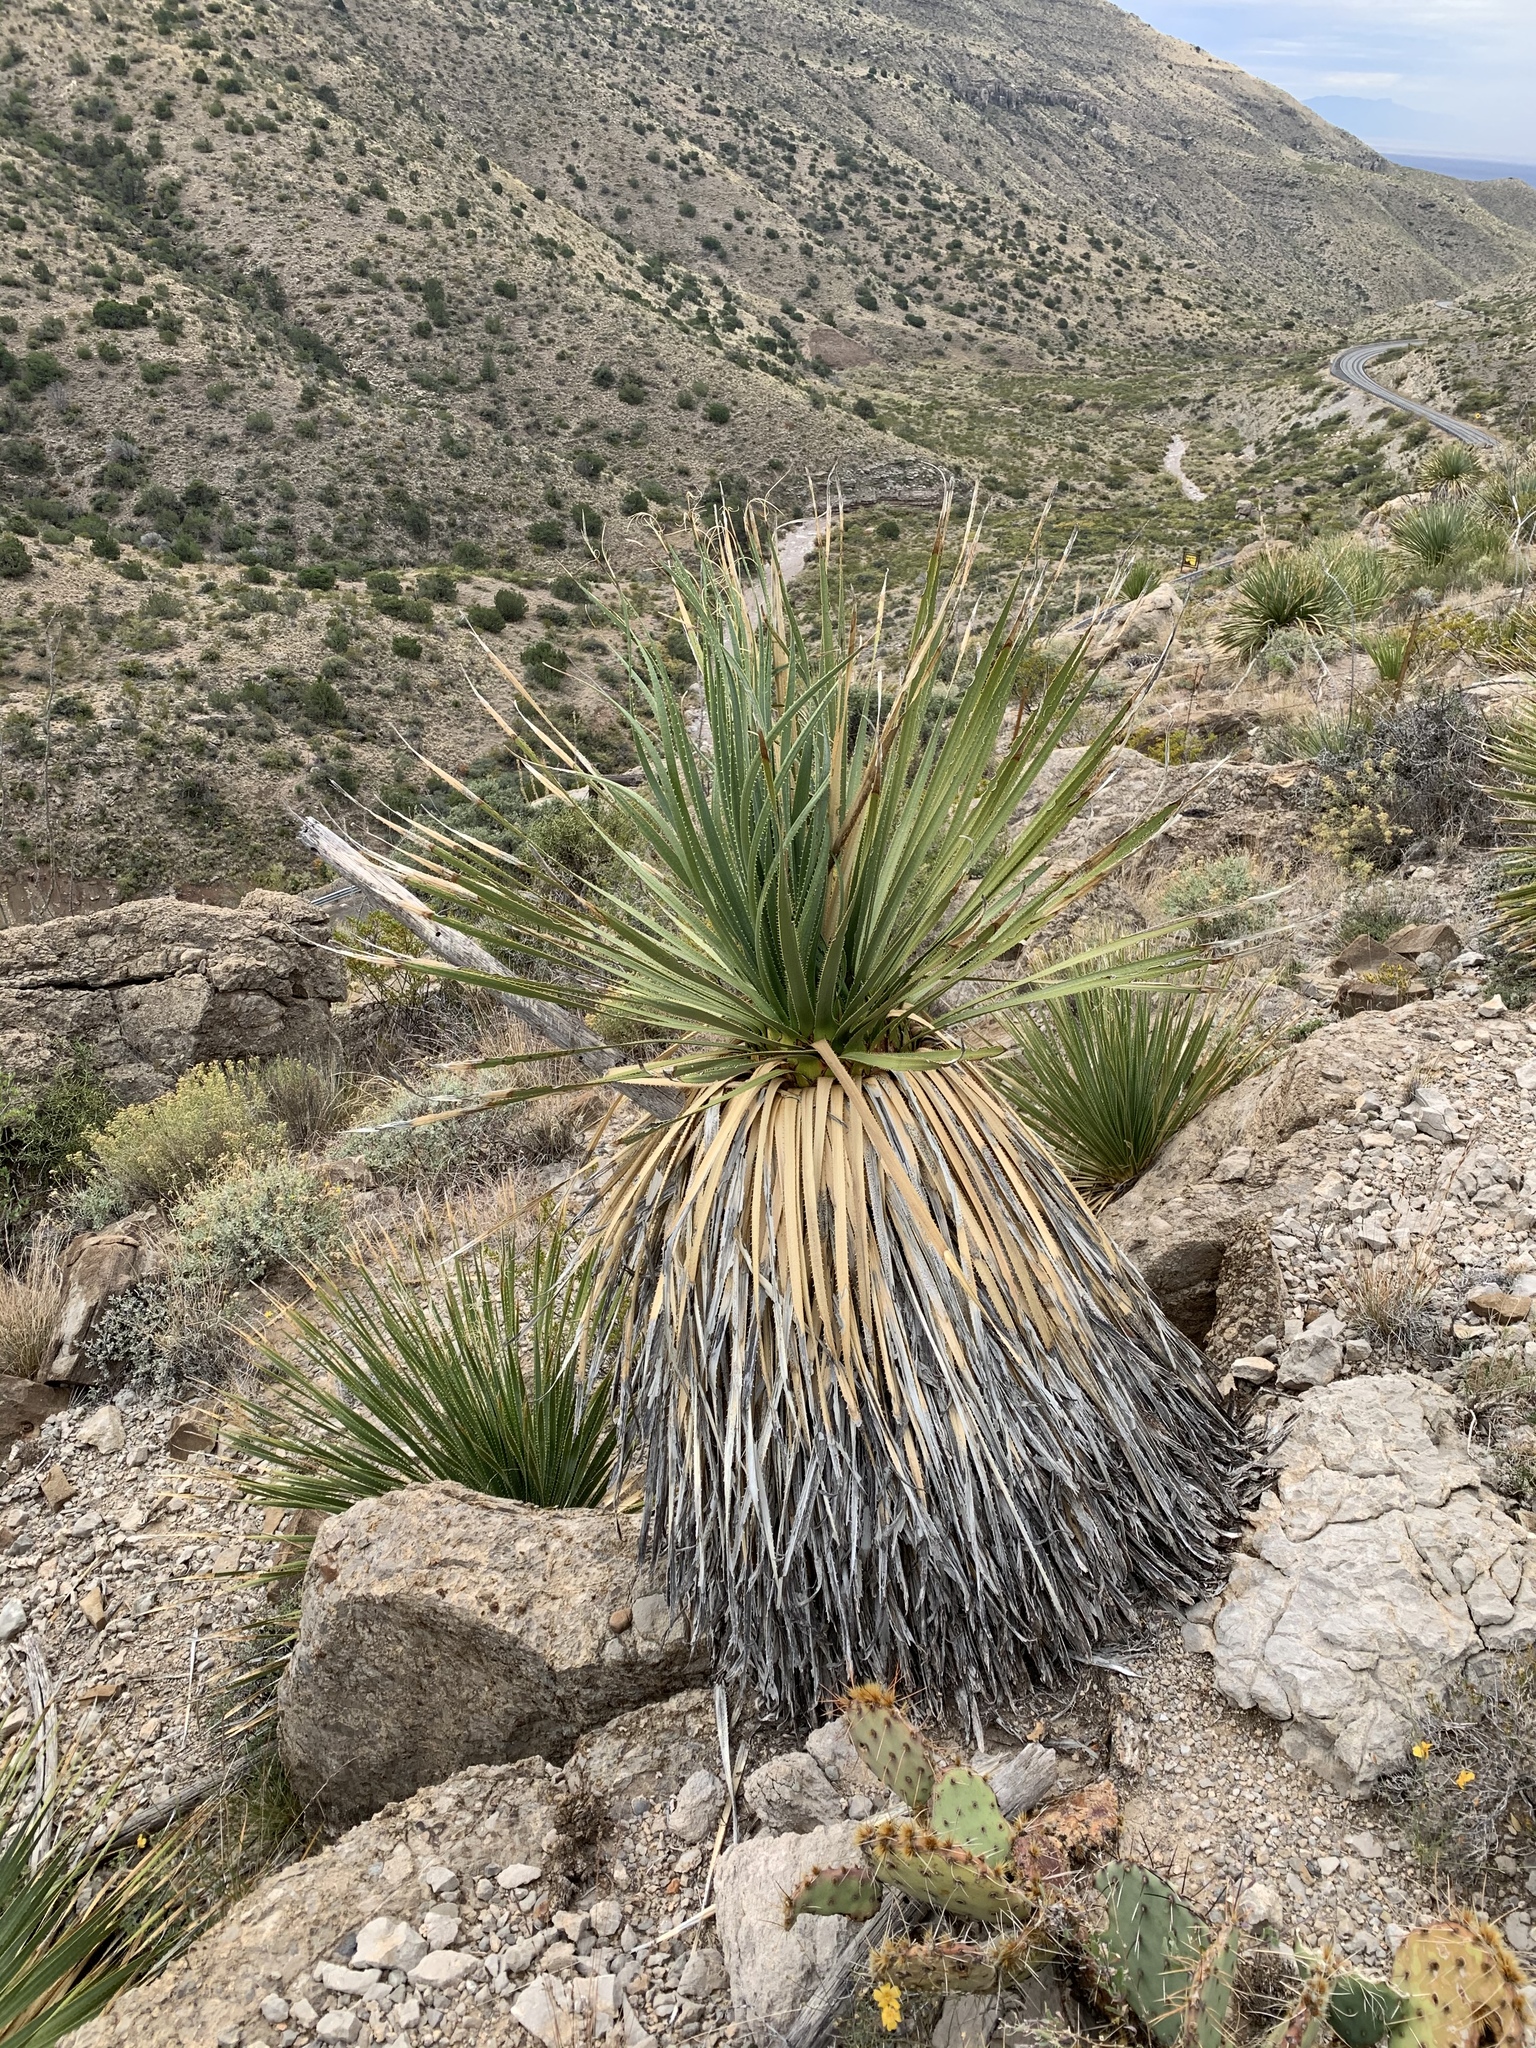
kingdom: Plantae
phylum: Tracheophyta
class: Liliopsida
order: Asparagales
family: Asparagaceae
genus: Dasylirion
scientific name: Dasylirion wheeleri
